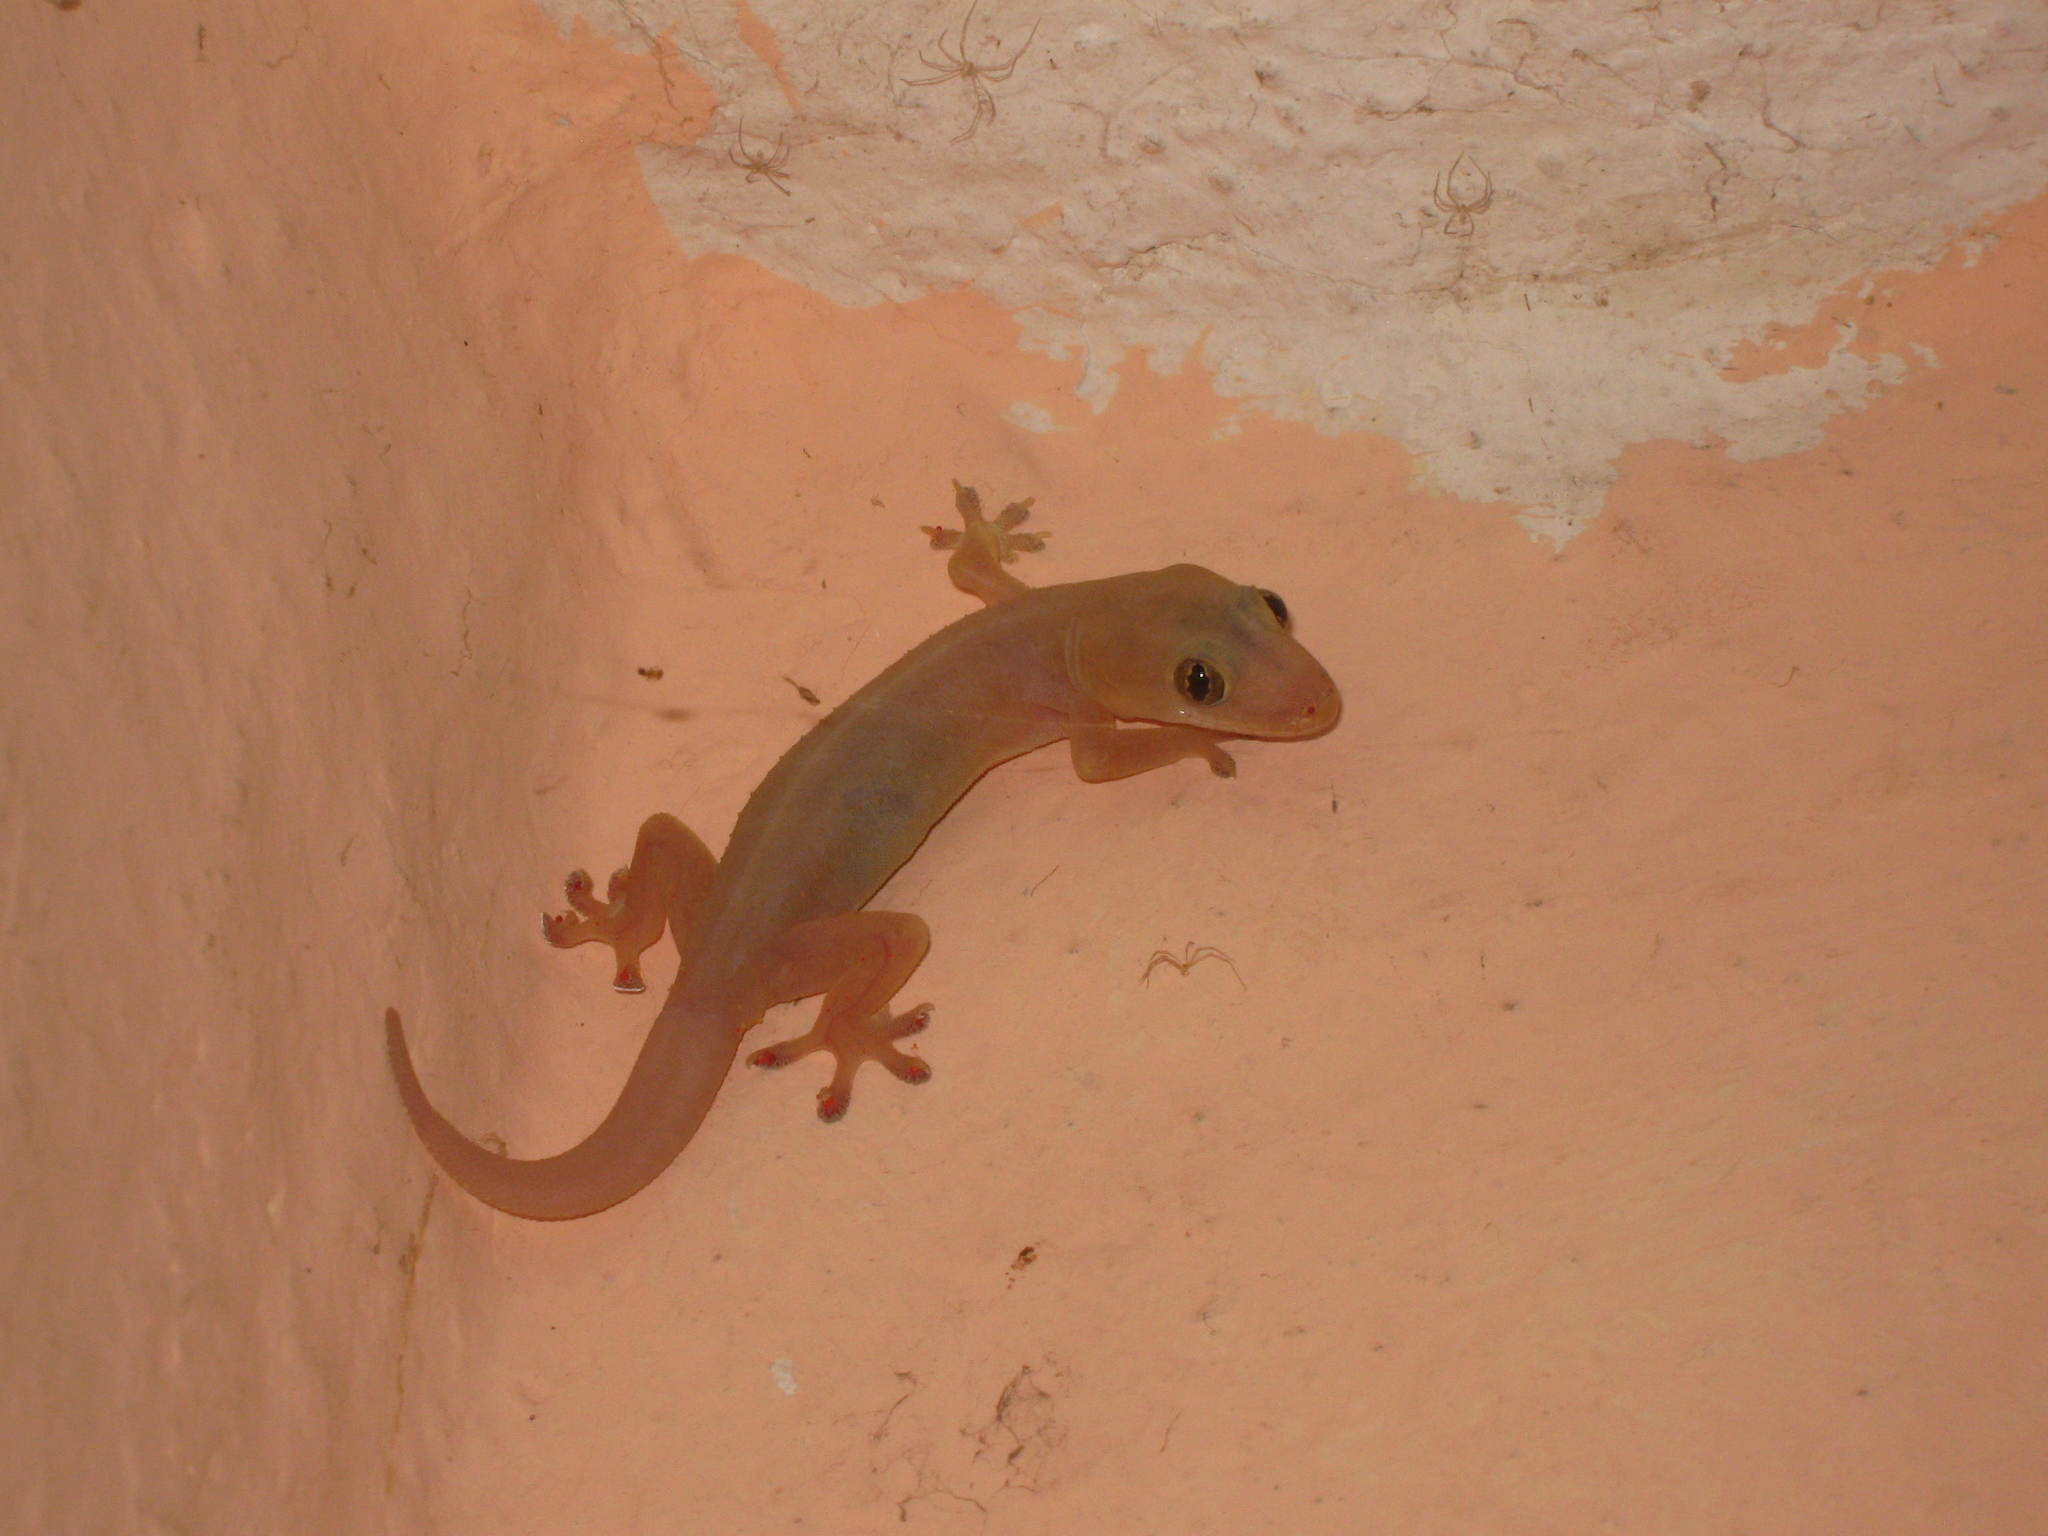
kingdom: Animalia
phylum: Chordata
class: Squamata
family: Gekkonidae
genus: Hemidactylus
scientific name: Hemidactylus frenatus
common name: Common house gecko
